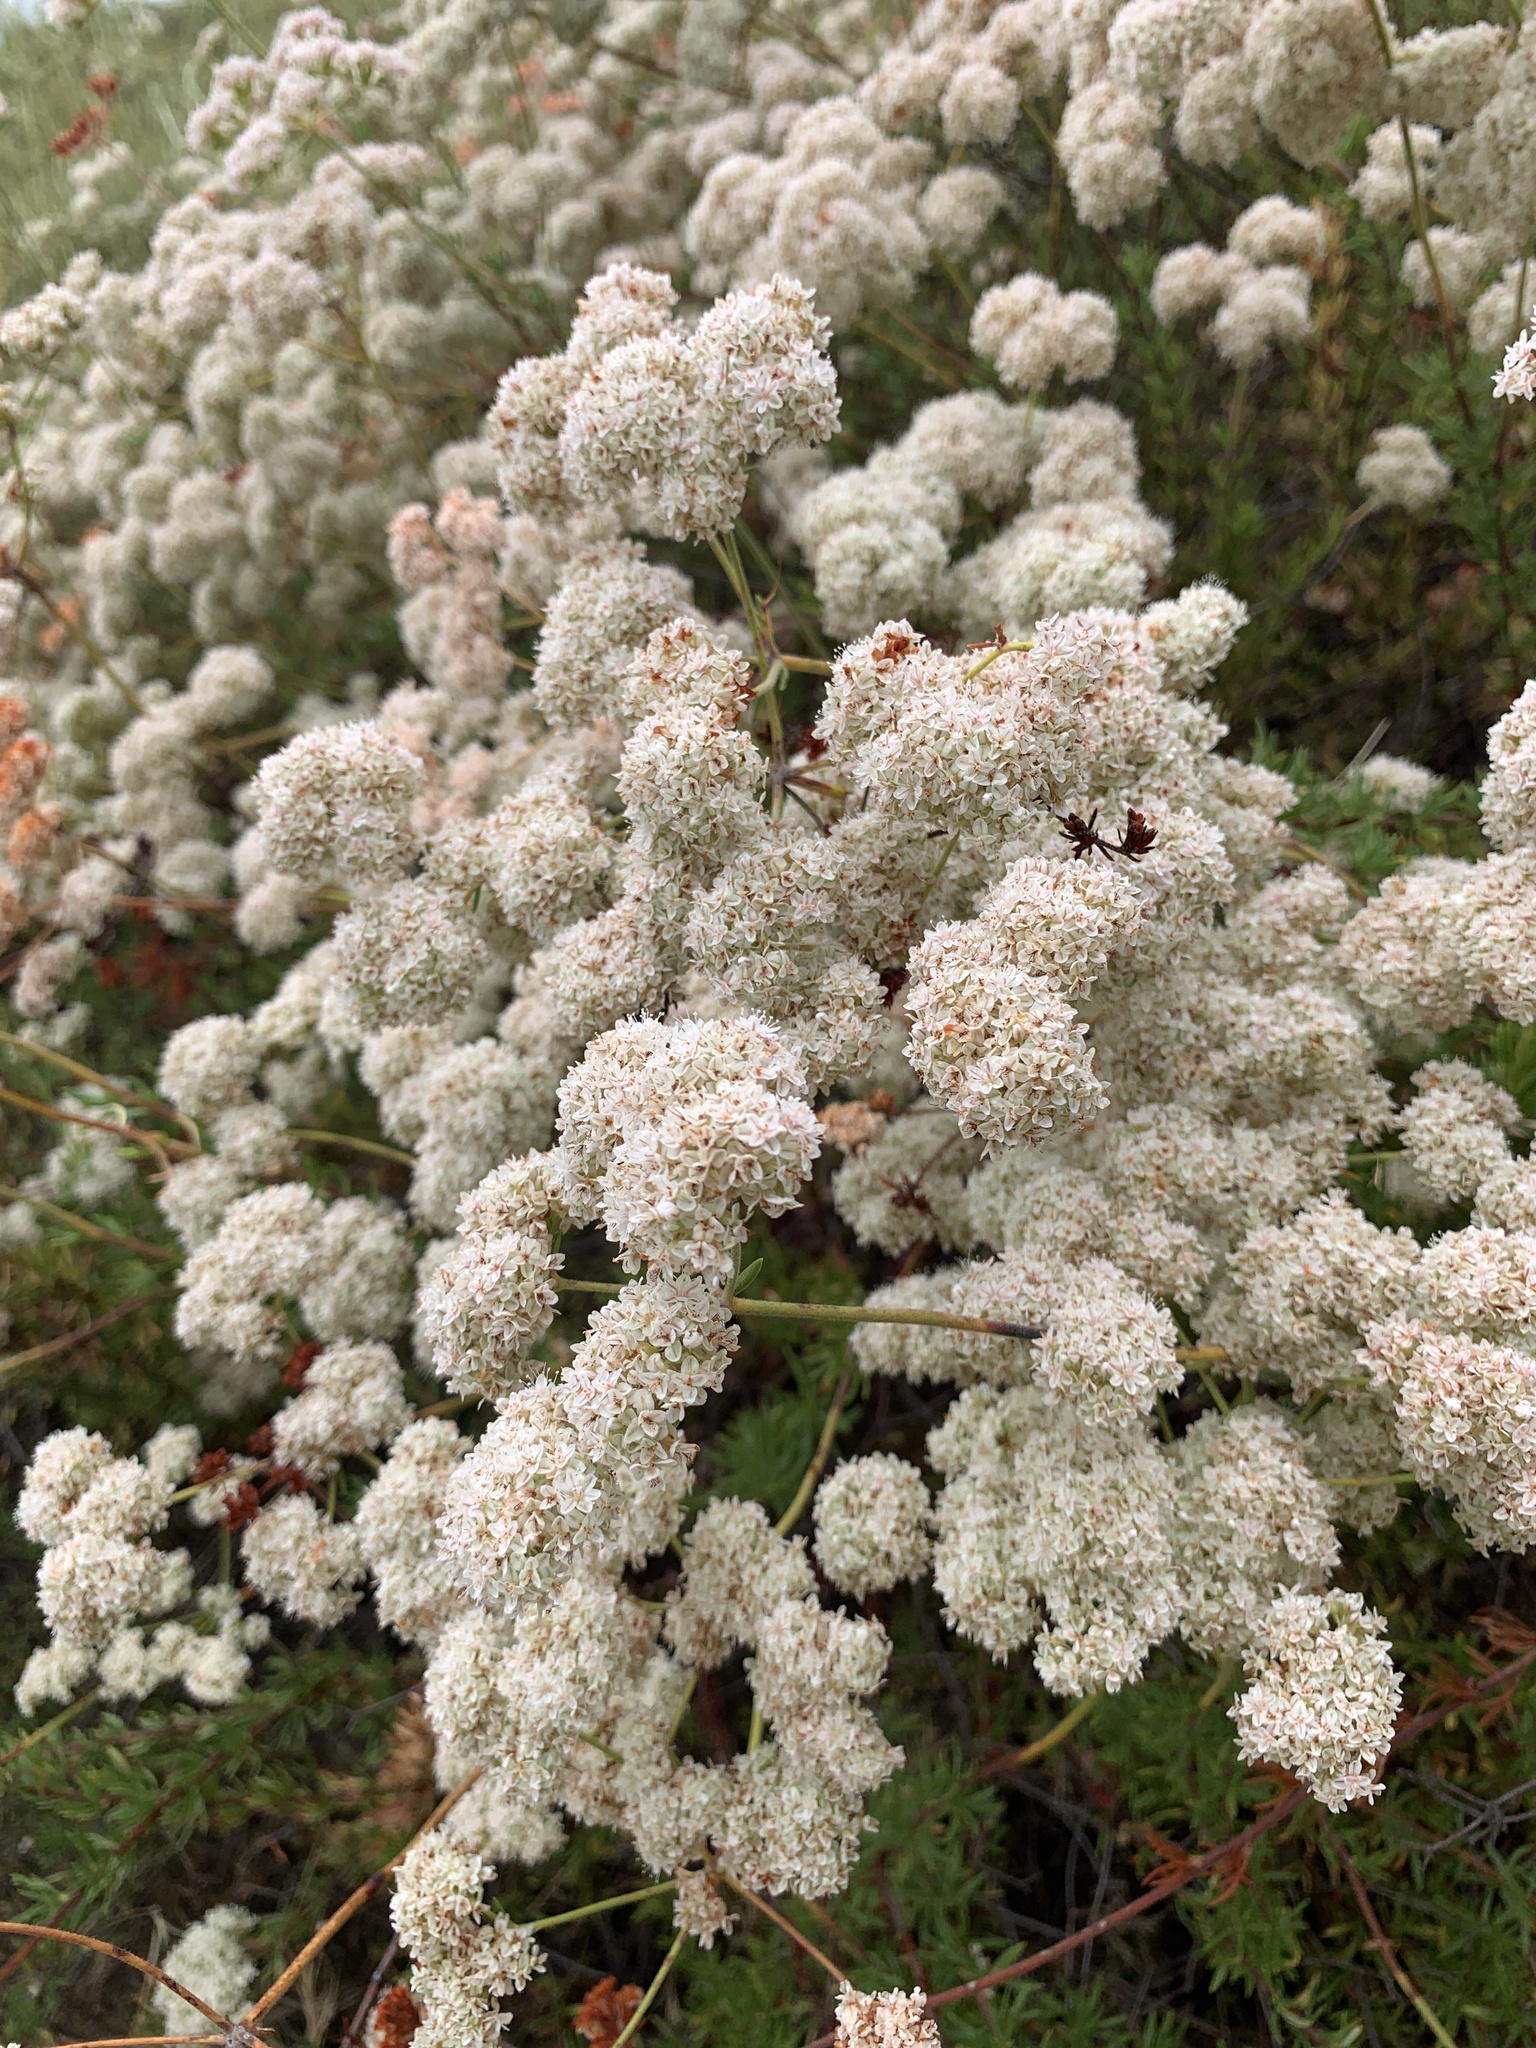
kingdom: Plantae
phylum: Tracheophyta
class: Magnoliopsida
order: Caryophyllales
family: Polygonaceae
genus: Eriogonum
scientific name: Eriogonum fasciculatum
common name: California wild buckwheat
